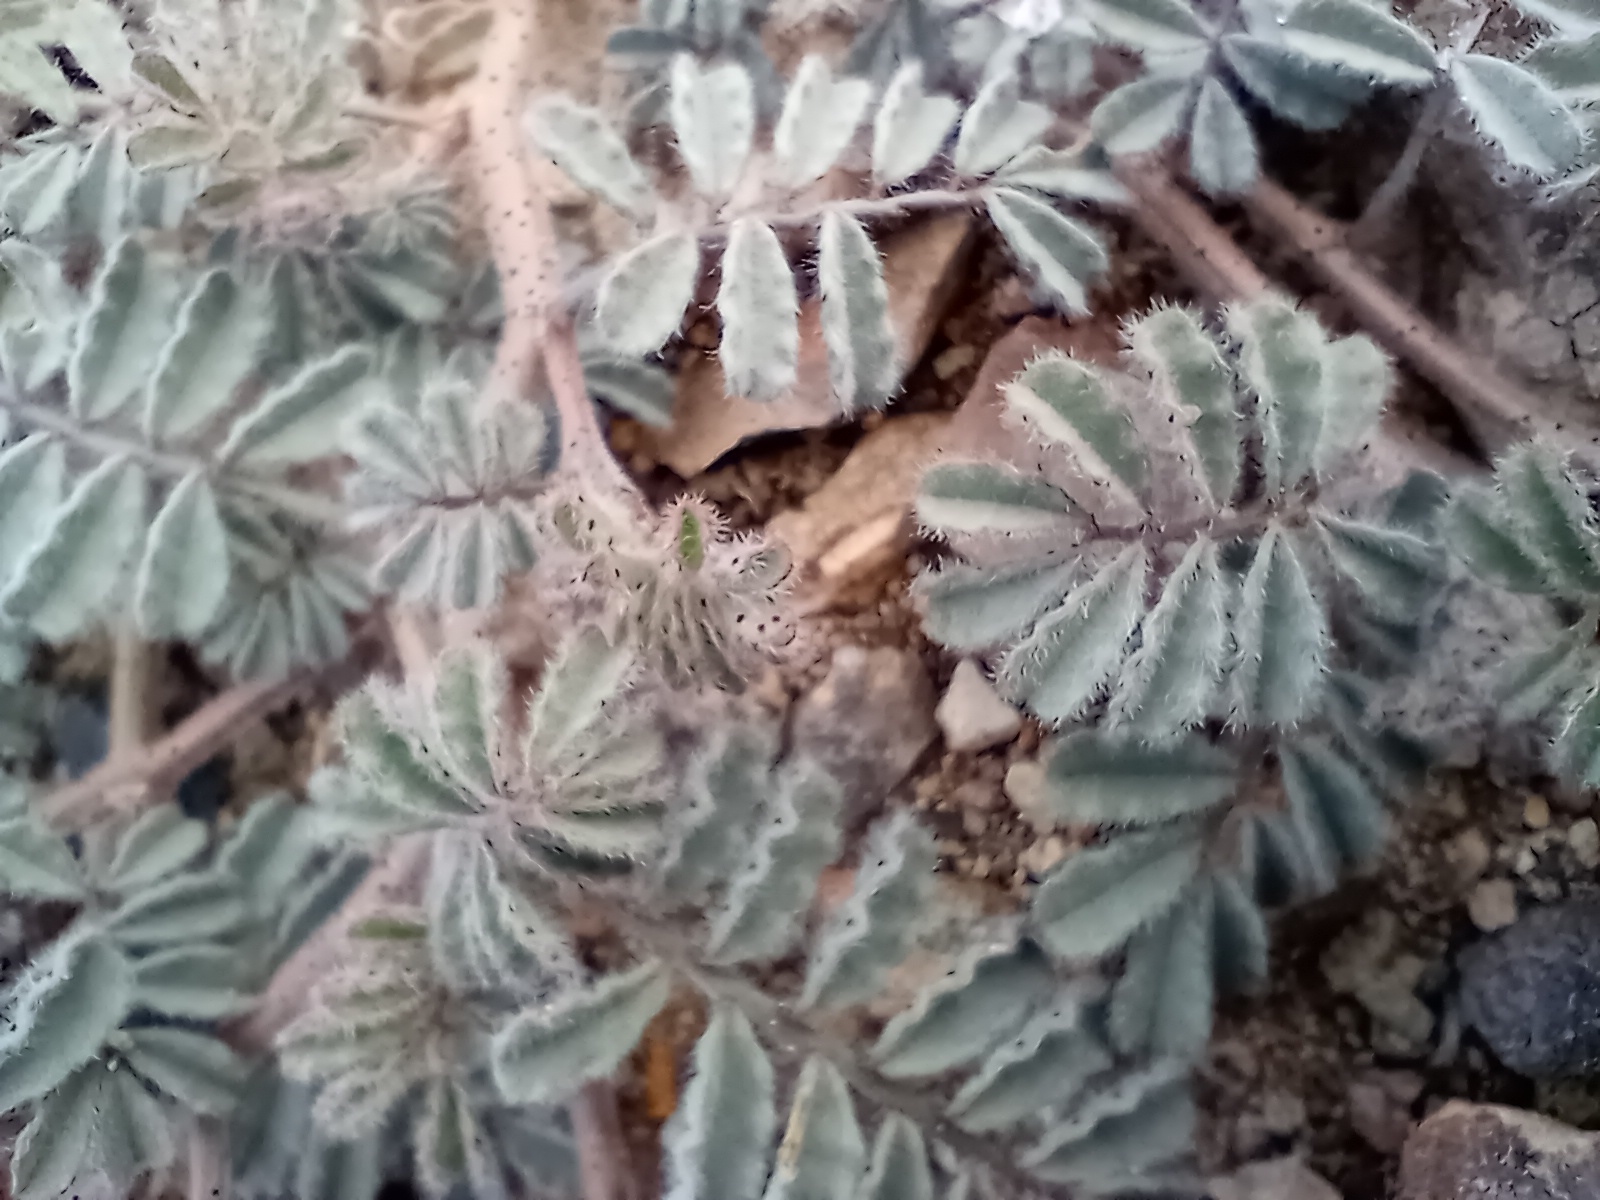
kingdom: Plantae
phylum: Tracheophyta
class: Magnoliopsida
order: Fabales
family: Fabaceae
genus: Dalea
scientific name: Dalea mollissima
